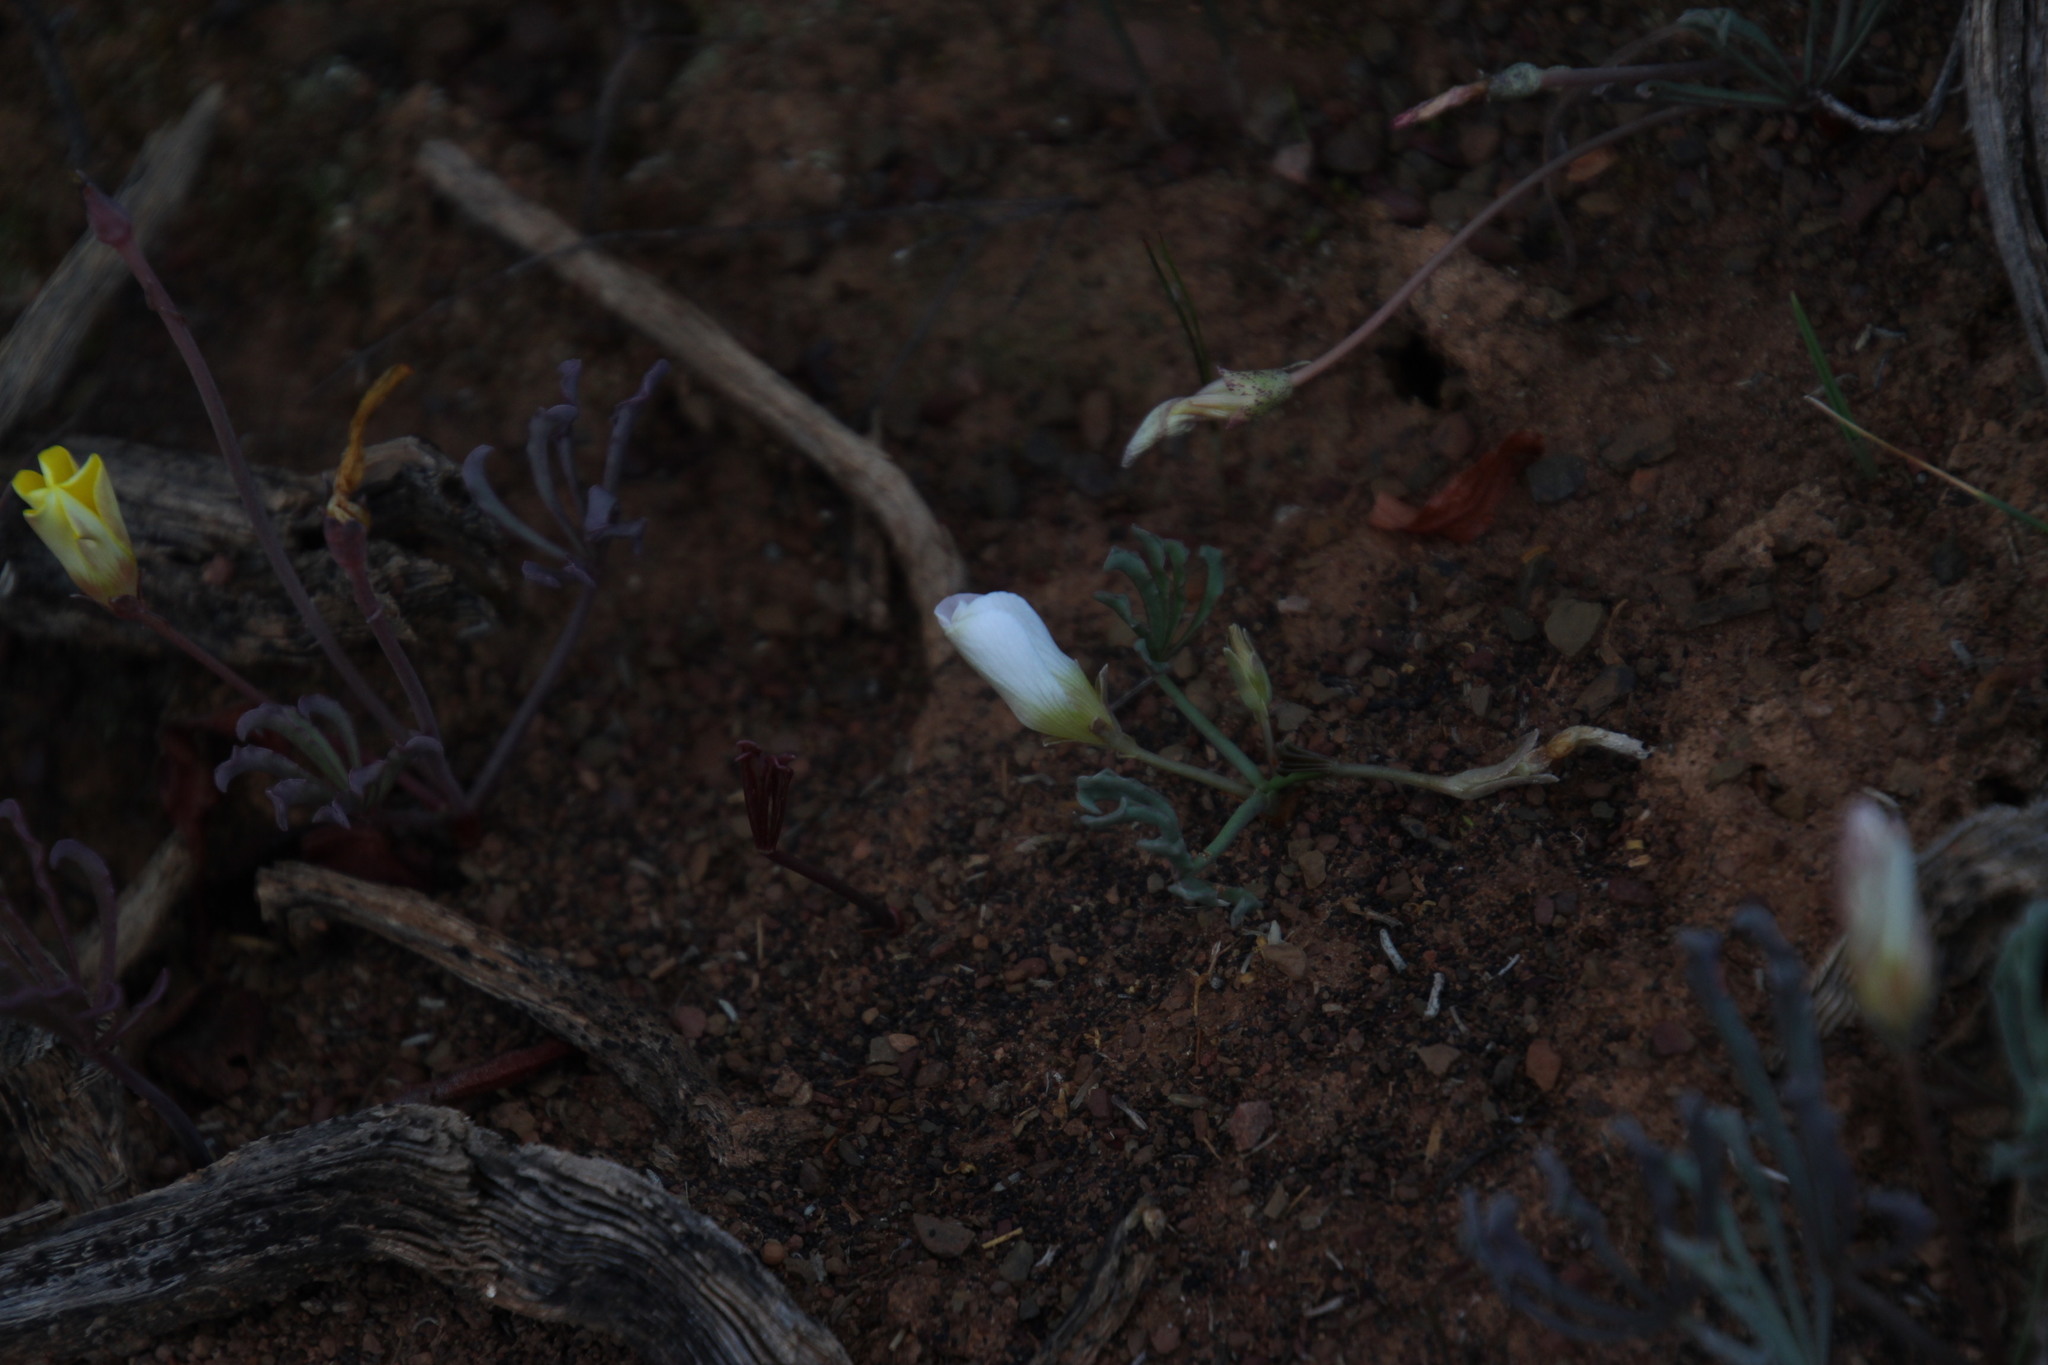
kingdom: Plantae
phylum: Tracheophyta
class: Magnoliopsida
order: Oxalidales
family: Oxalidaceae
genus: Oxalis
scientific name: Oxalis flava
